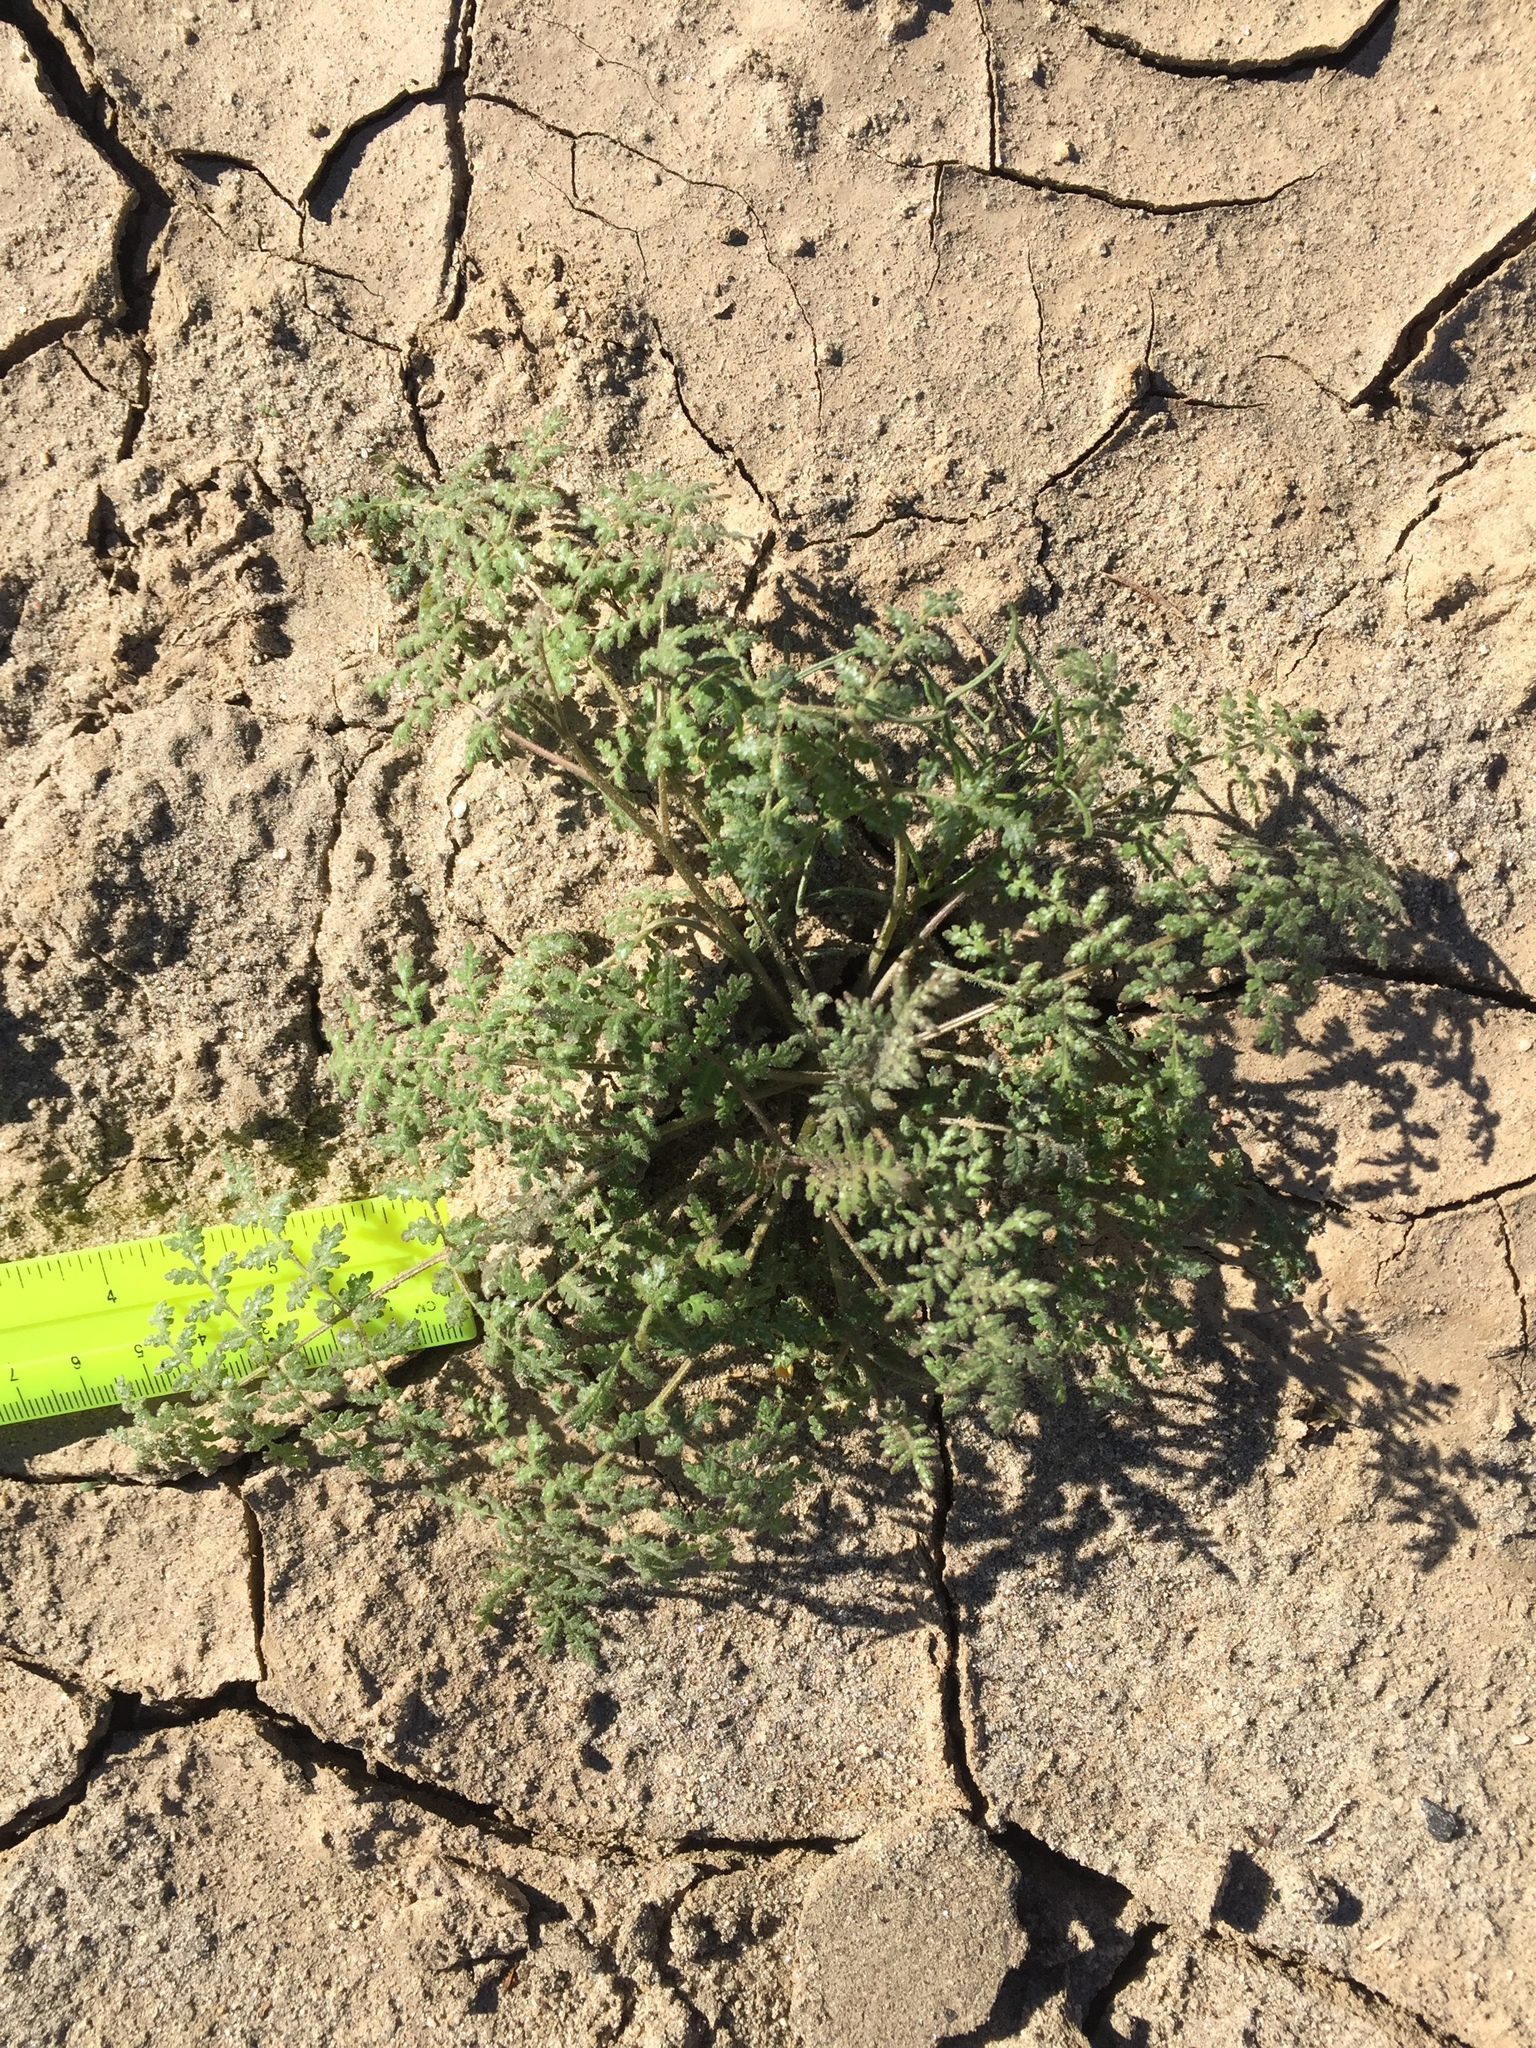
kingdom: Plantae
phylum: Tracheophyta
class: Magnoliopsida
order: Boraginales
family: Hydrophyllaceae
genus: Phacelia
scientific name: Phacelia distans
